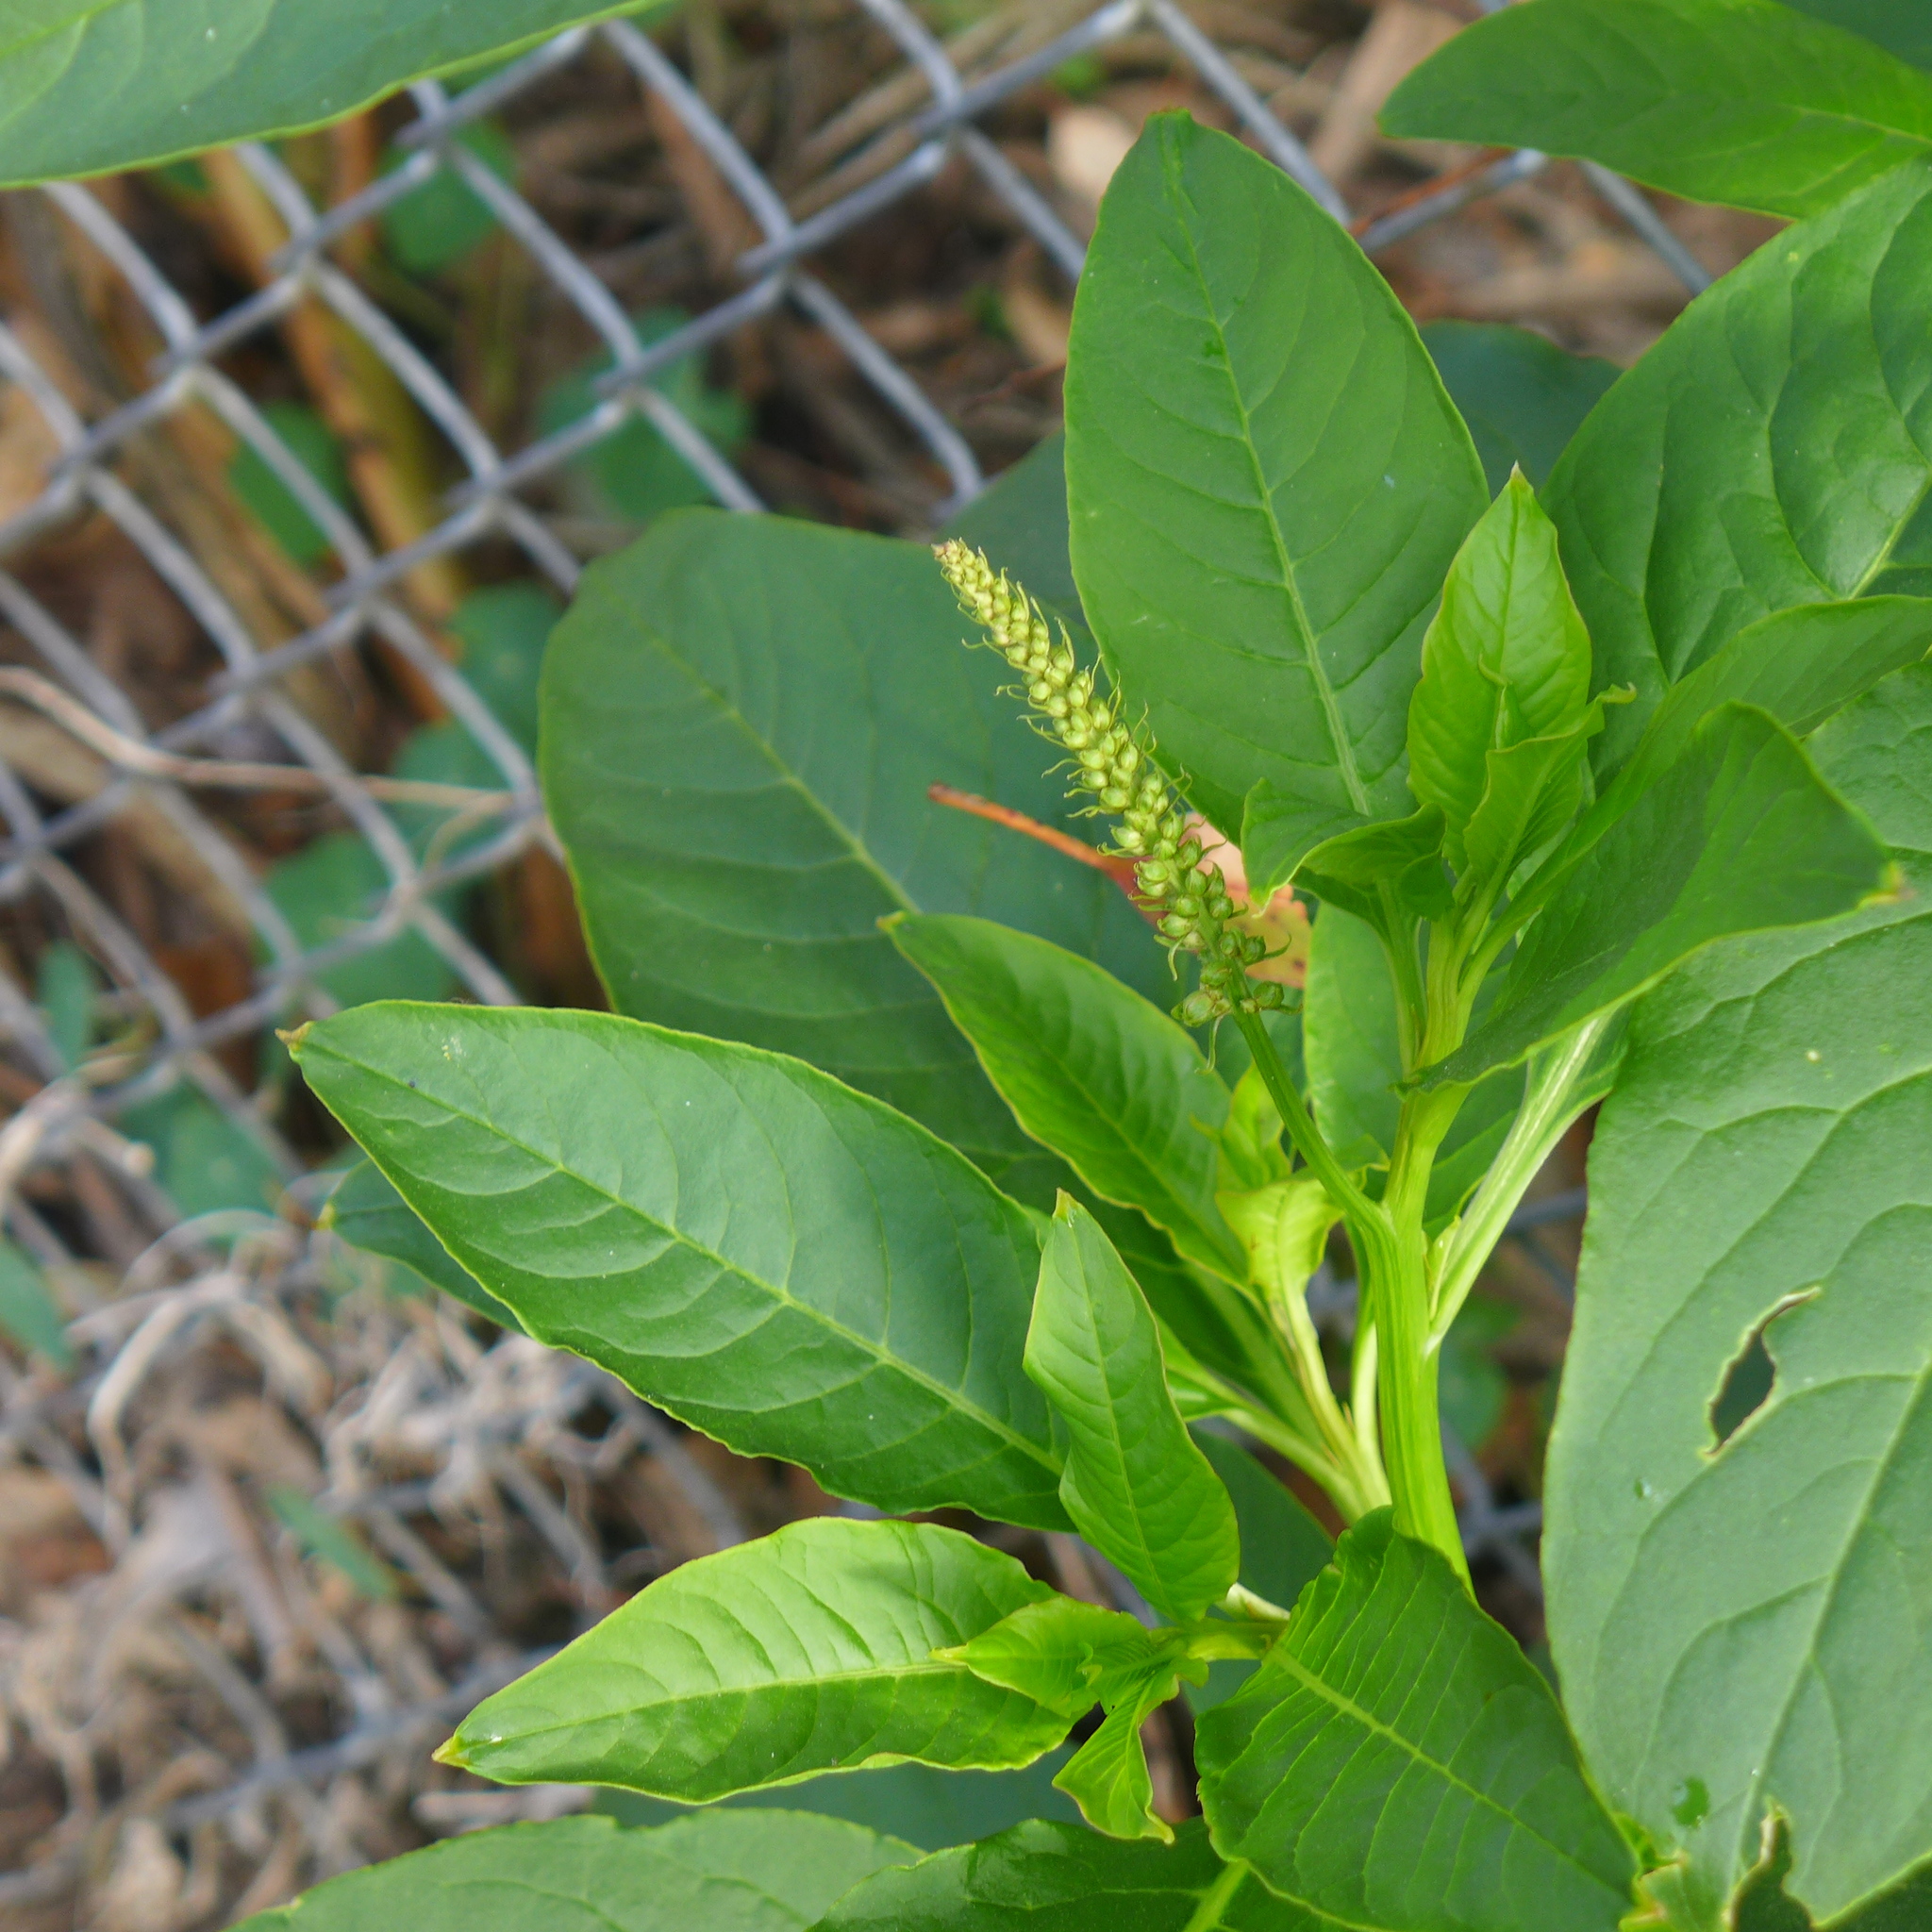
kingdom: Plantae
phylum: Tracheophyta
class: Magnoliopsida
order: Caryophyllales
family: Phytolaccaceae
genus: Phytolacca
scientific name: Phytolacca americana
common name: American pokeweed
